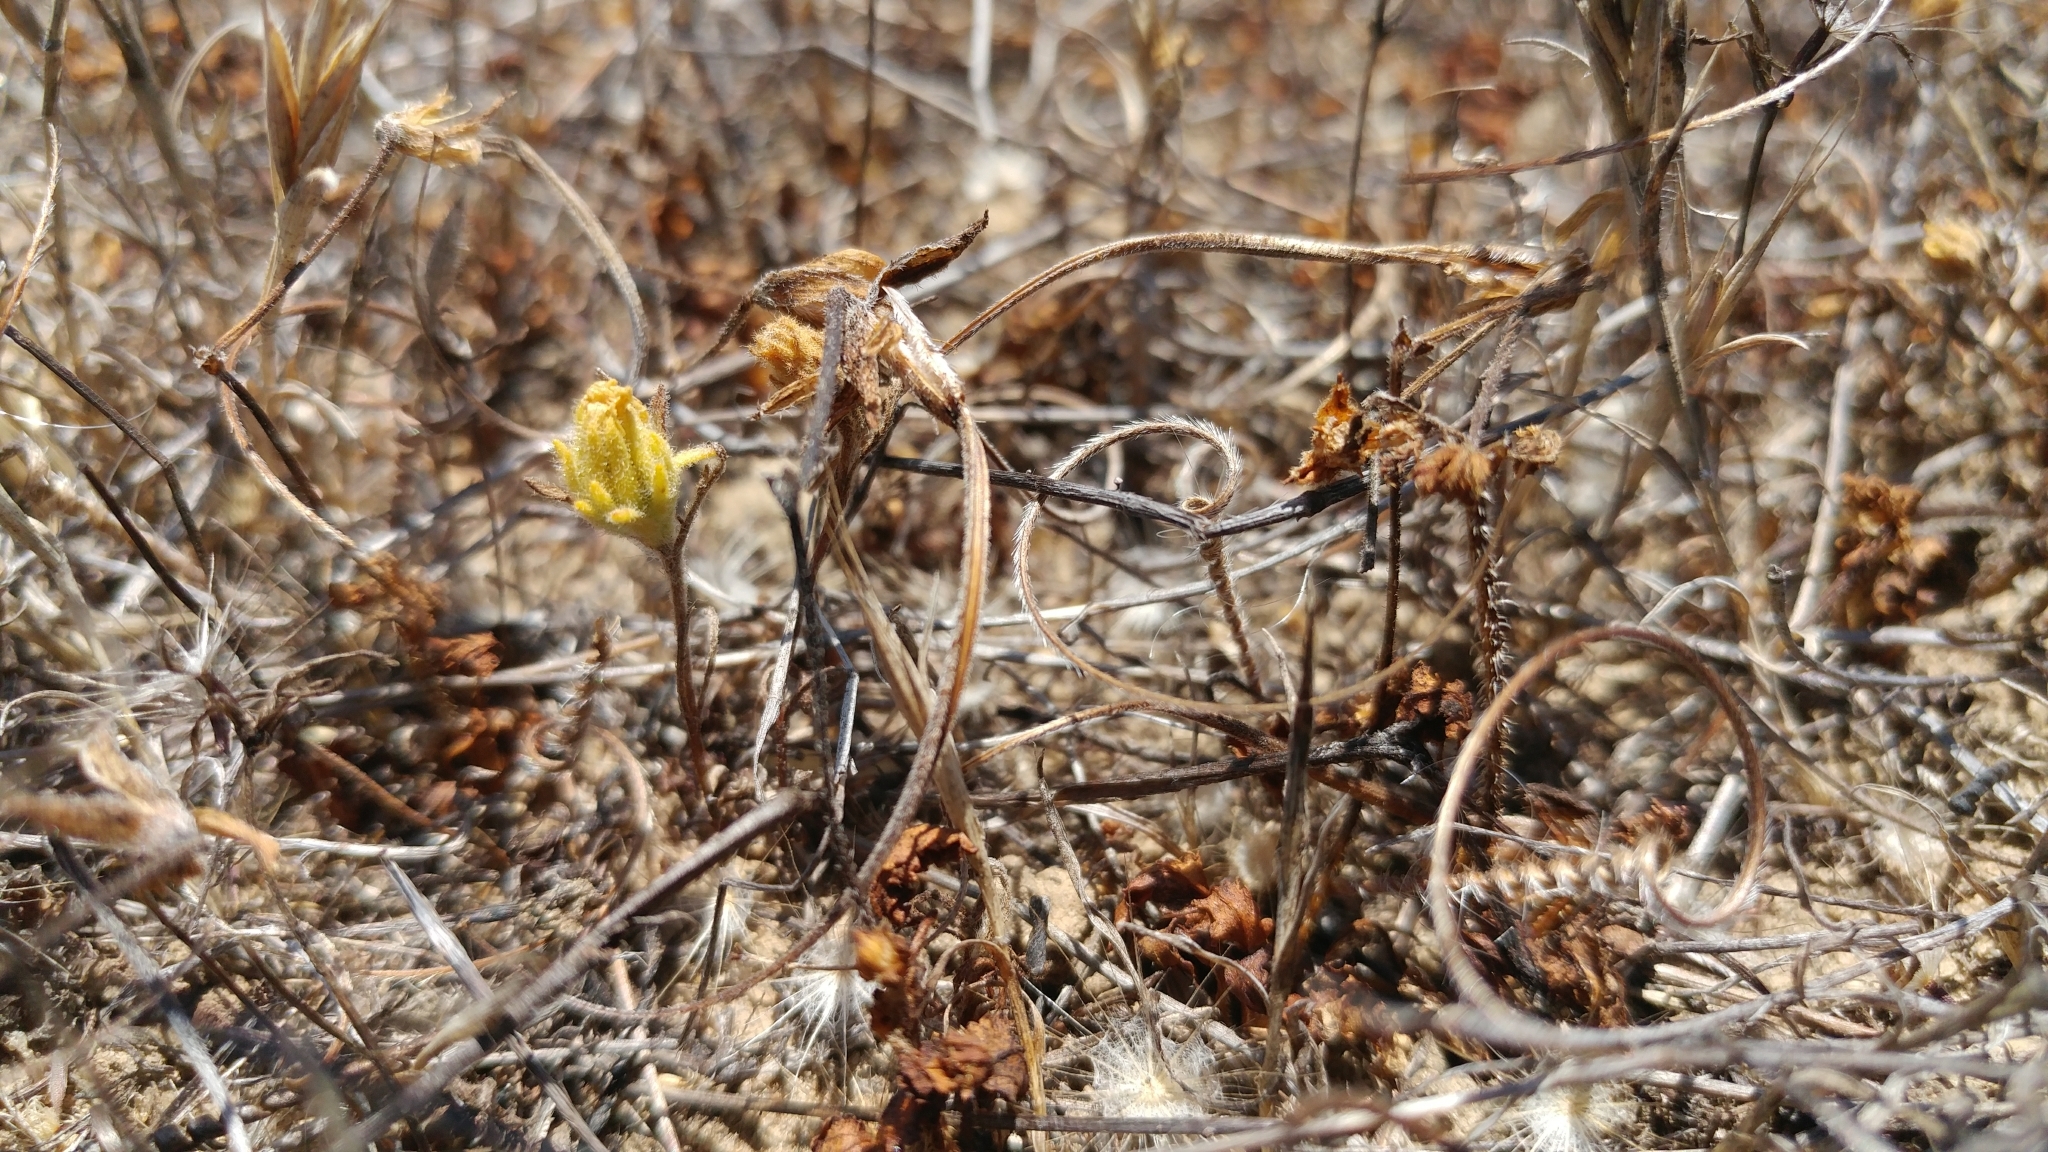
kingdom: Plantae
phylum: Tracheophyta
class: Magnoliopsida
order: Asterales
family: Asteraceae
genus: Deinandra
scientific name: Deinandra increscens
